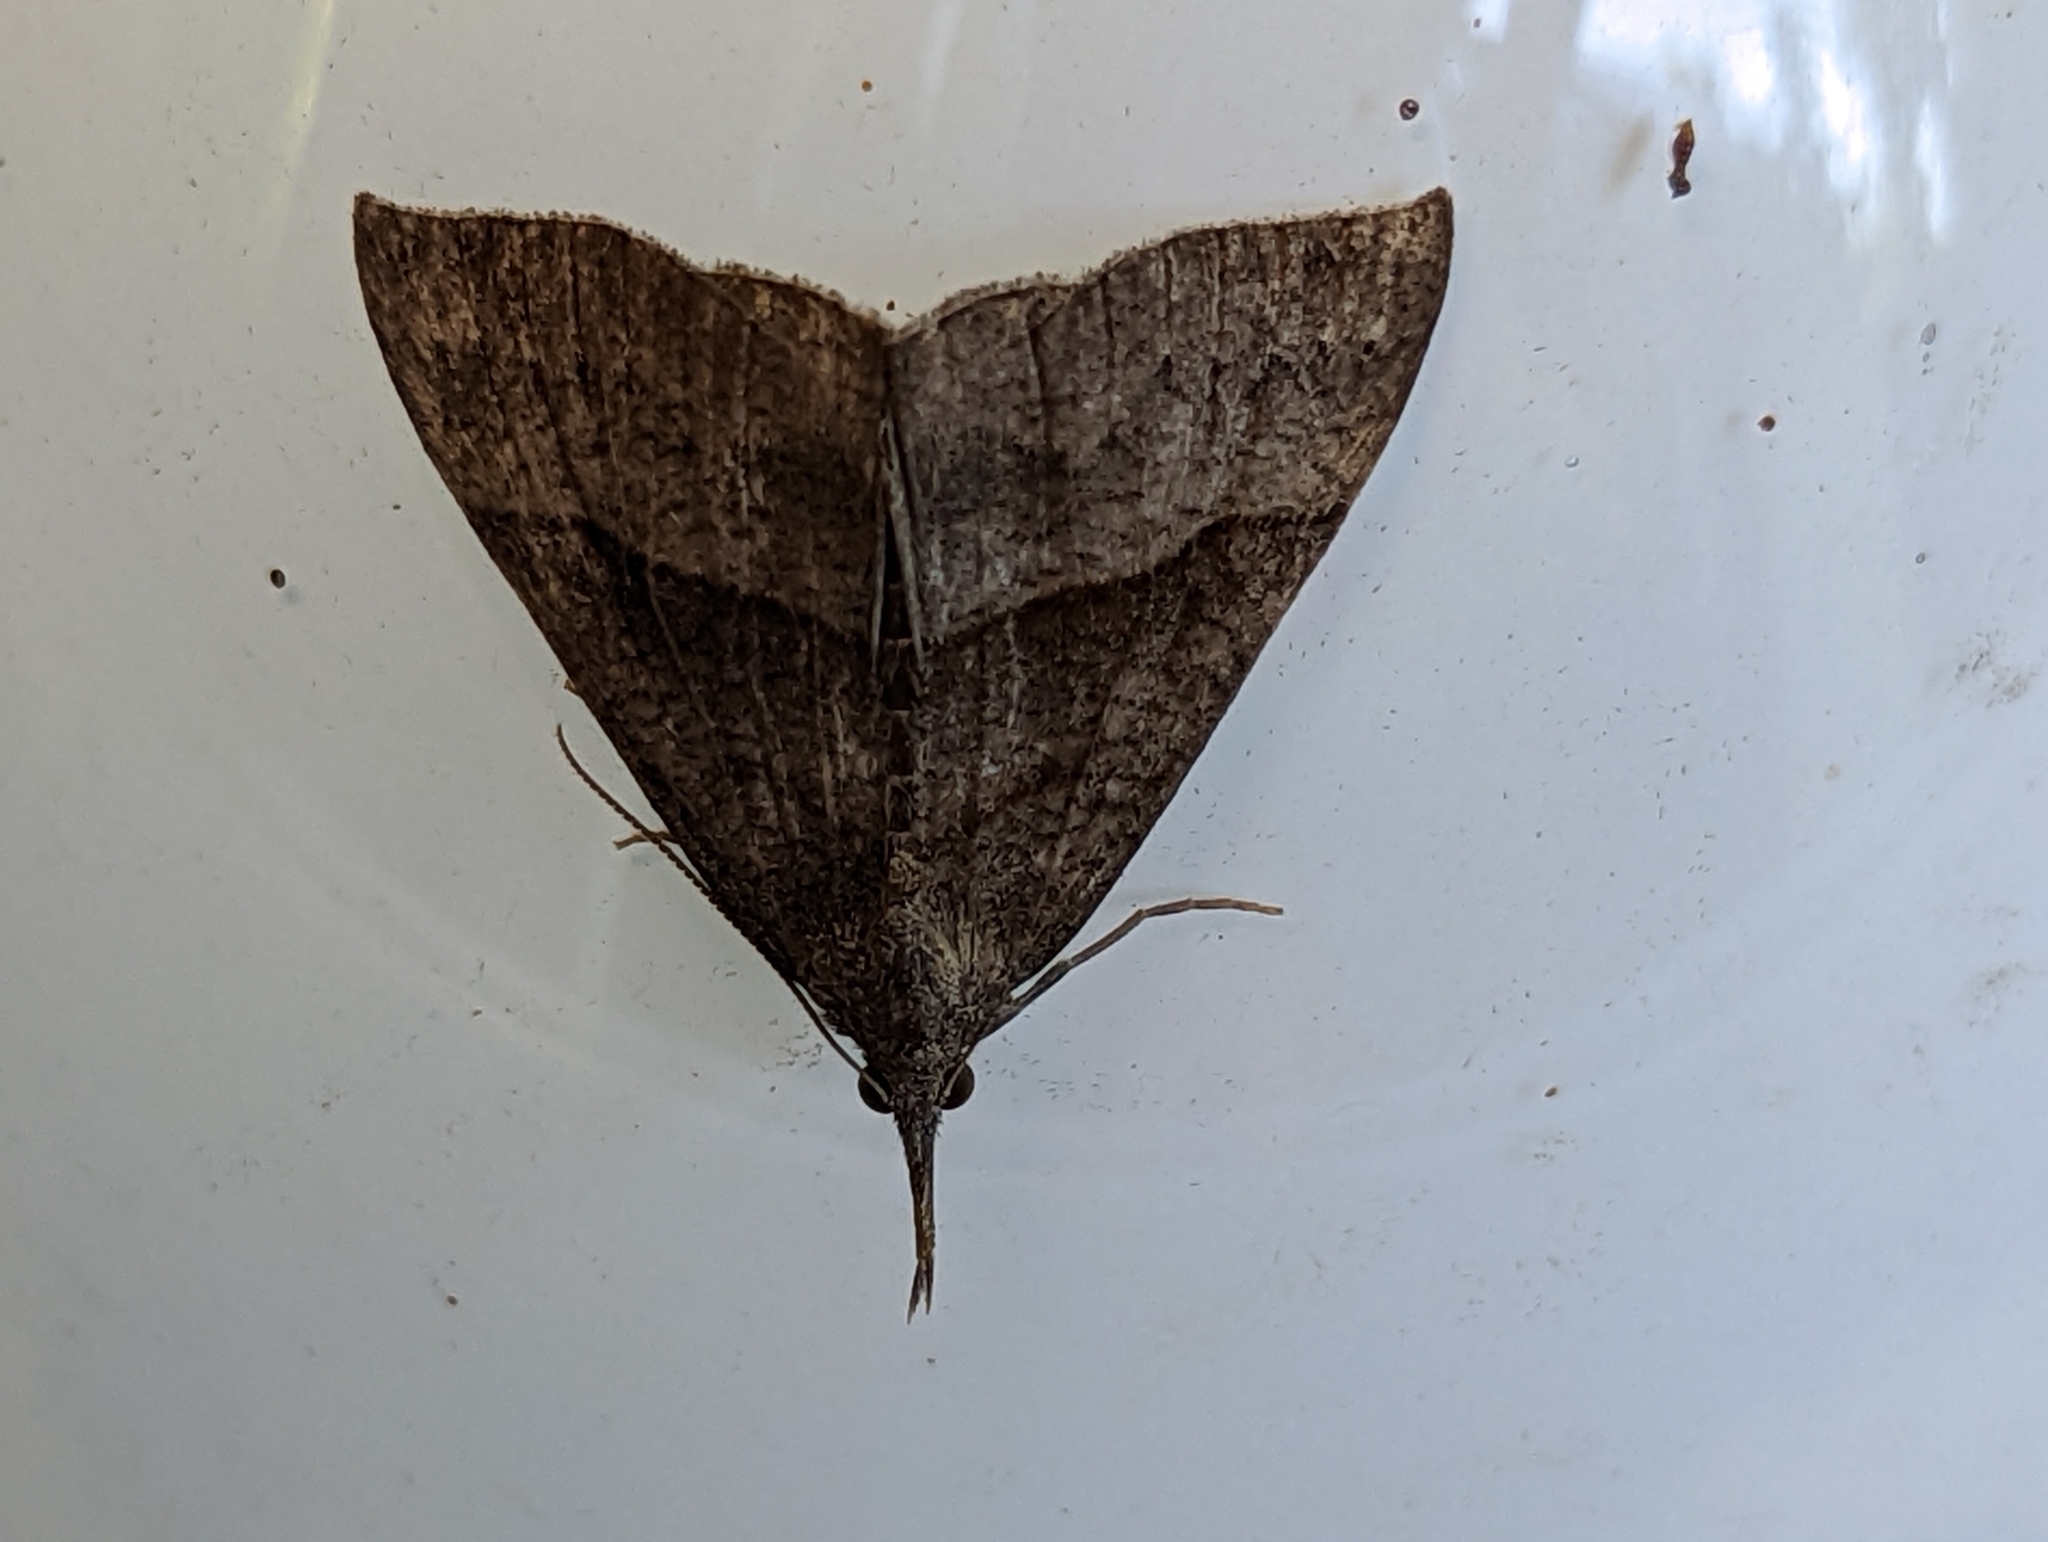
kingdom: Animalia
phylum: Arthropoda
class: Insecta
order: Lepidoptera
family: Erebidae
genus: Hypena
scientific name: Hypena proboscidalis
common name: Snout
